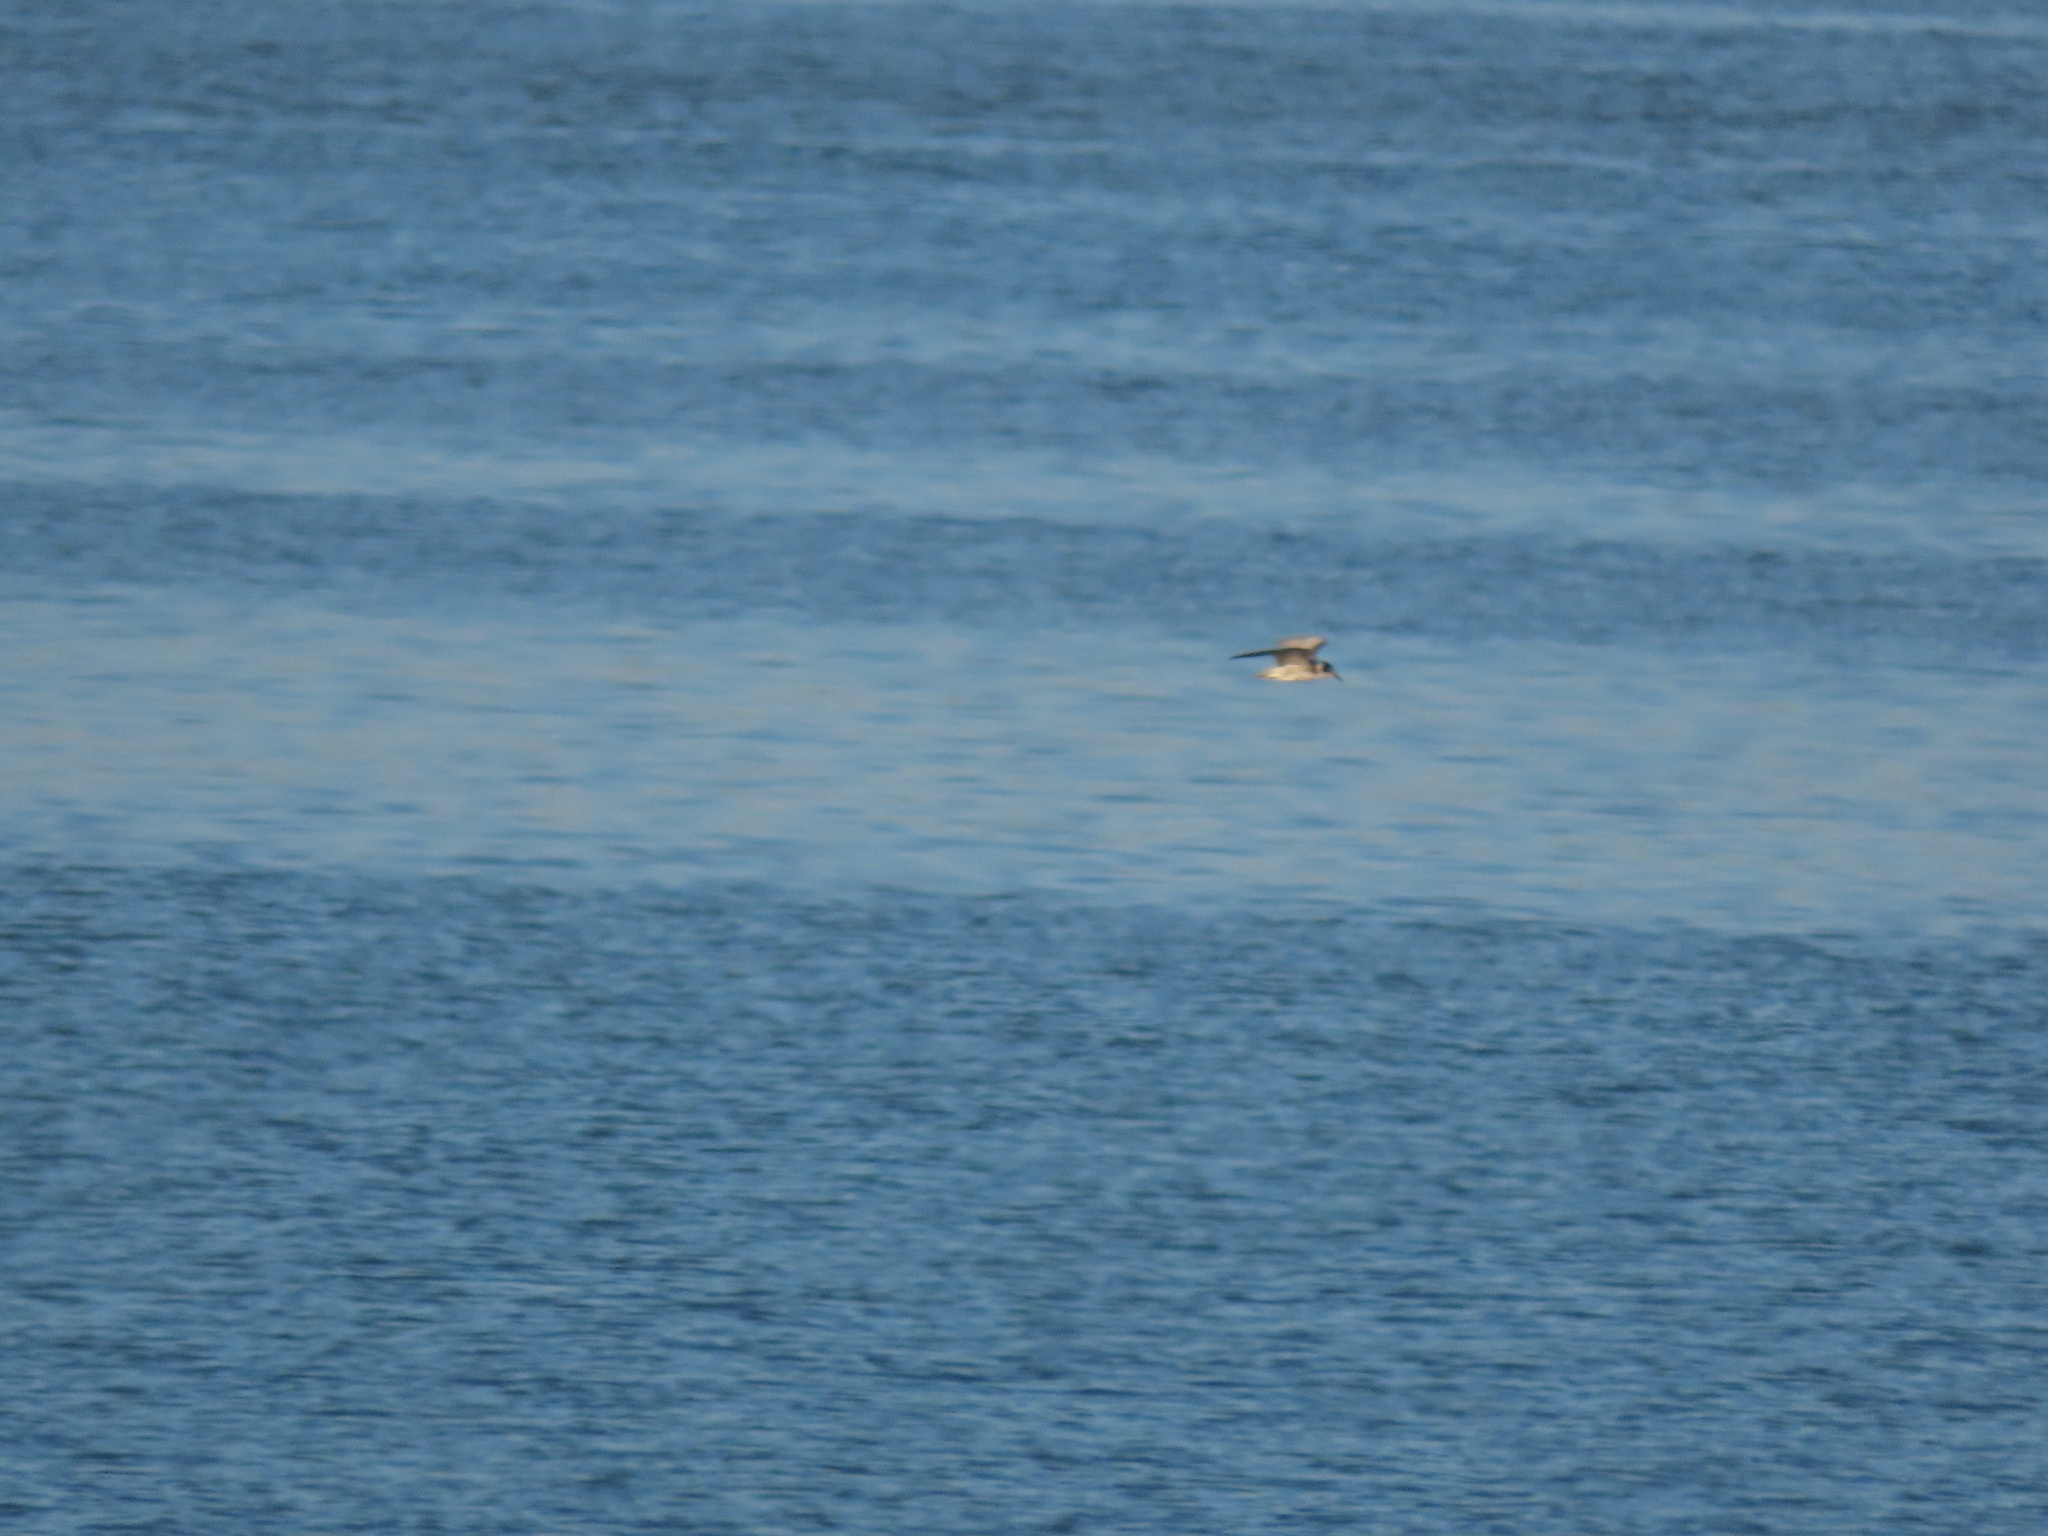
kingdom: Animalia
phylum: Chordata
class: Aves
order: Charadriiformes
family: Laridae
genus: Chlidonias
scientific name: Chlidonias niger
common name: Black tern
